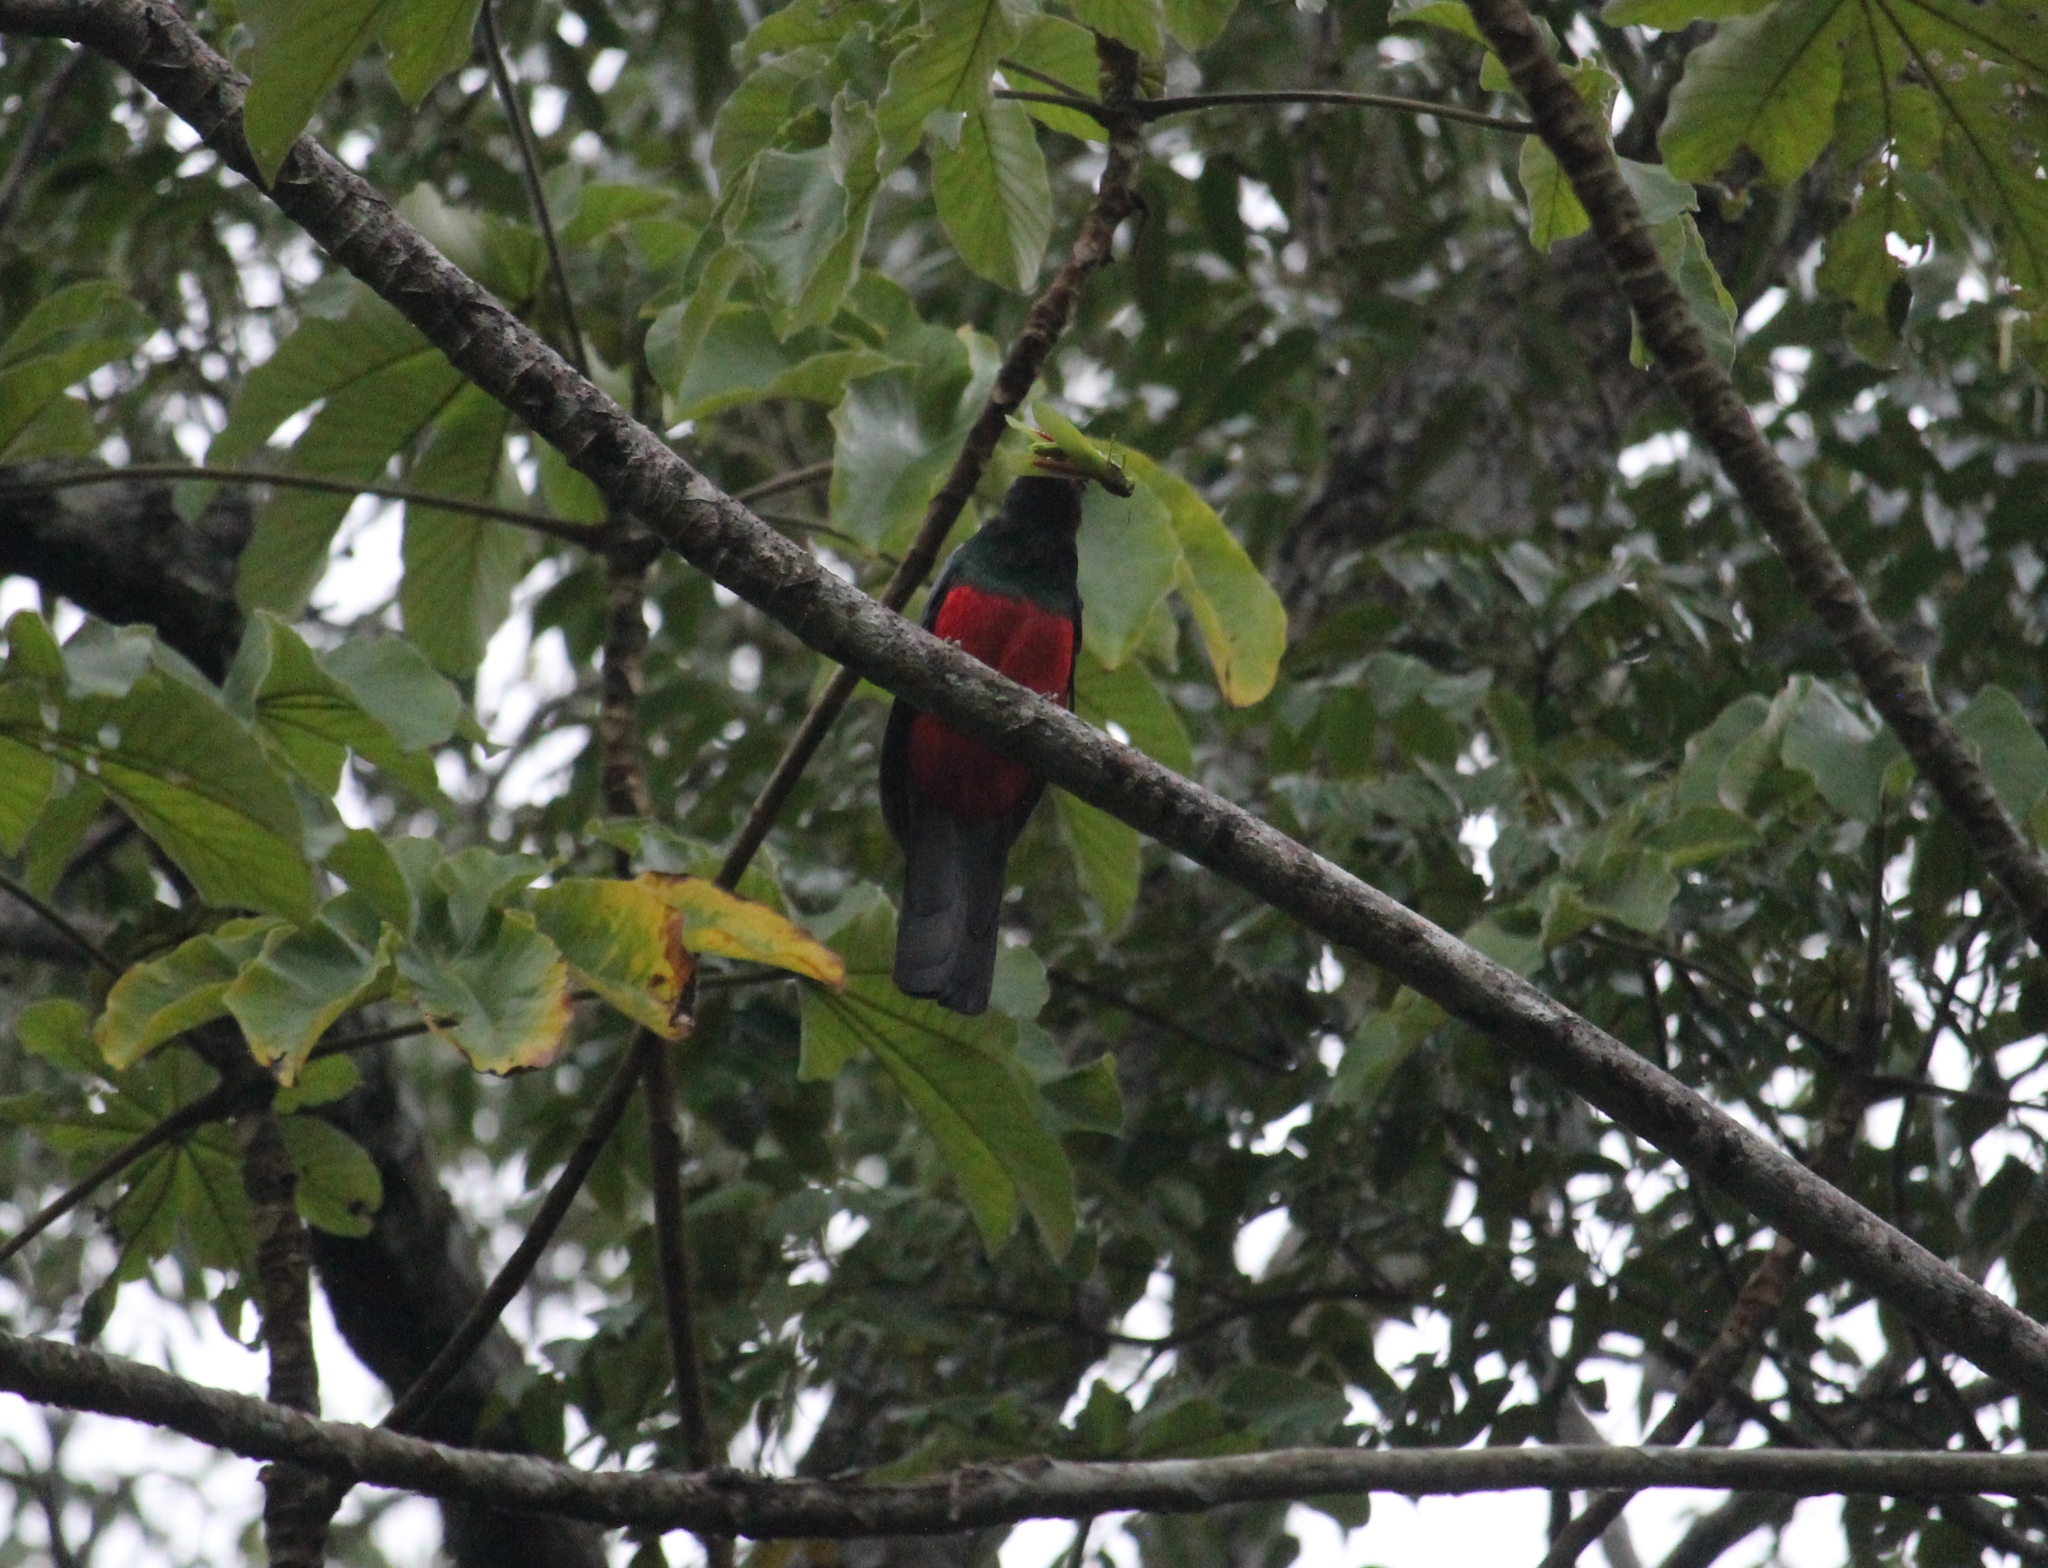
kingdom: Animalia
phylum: Chordata
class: Aves
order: Trogoniformes
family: Trogonidae
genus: Trogon
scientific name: Trogon massena
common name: Slaty-tailed trogon
